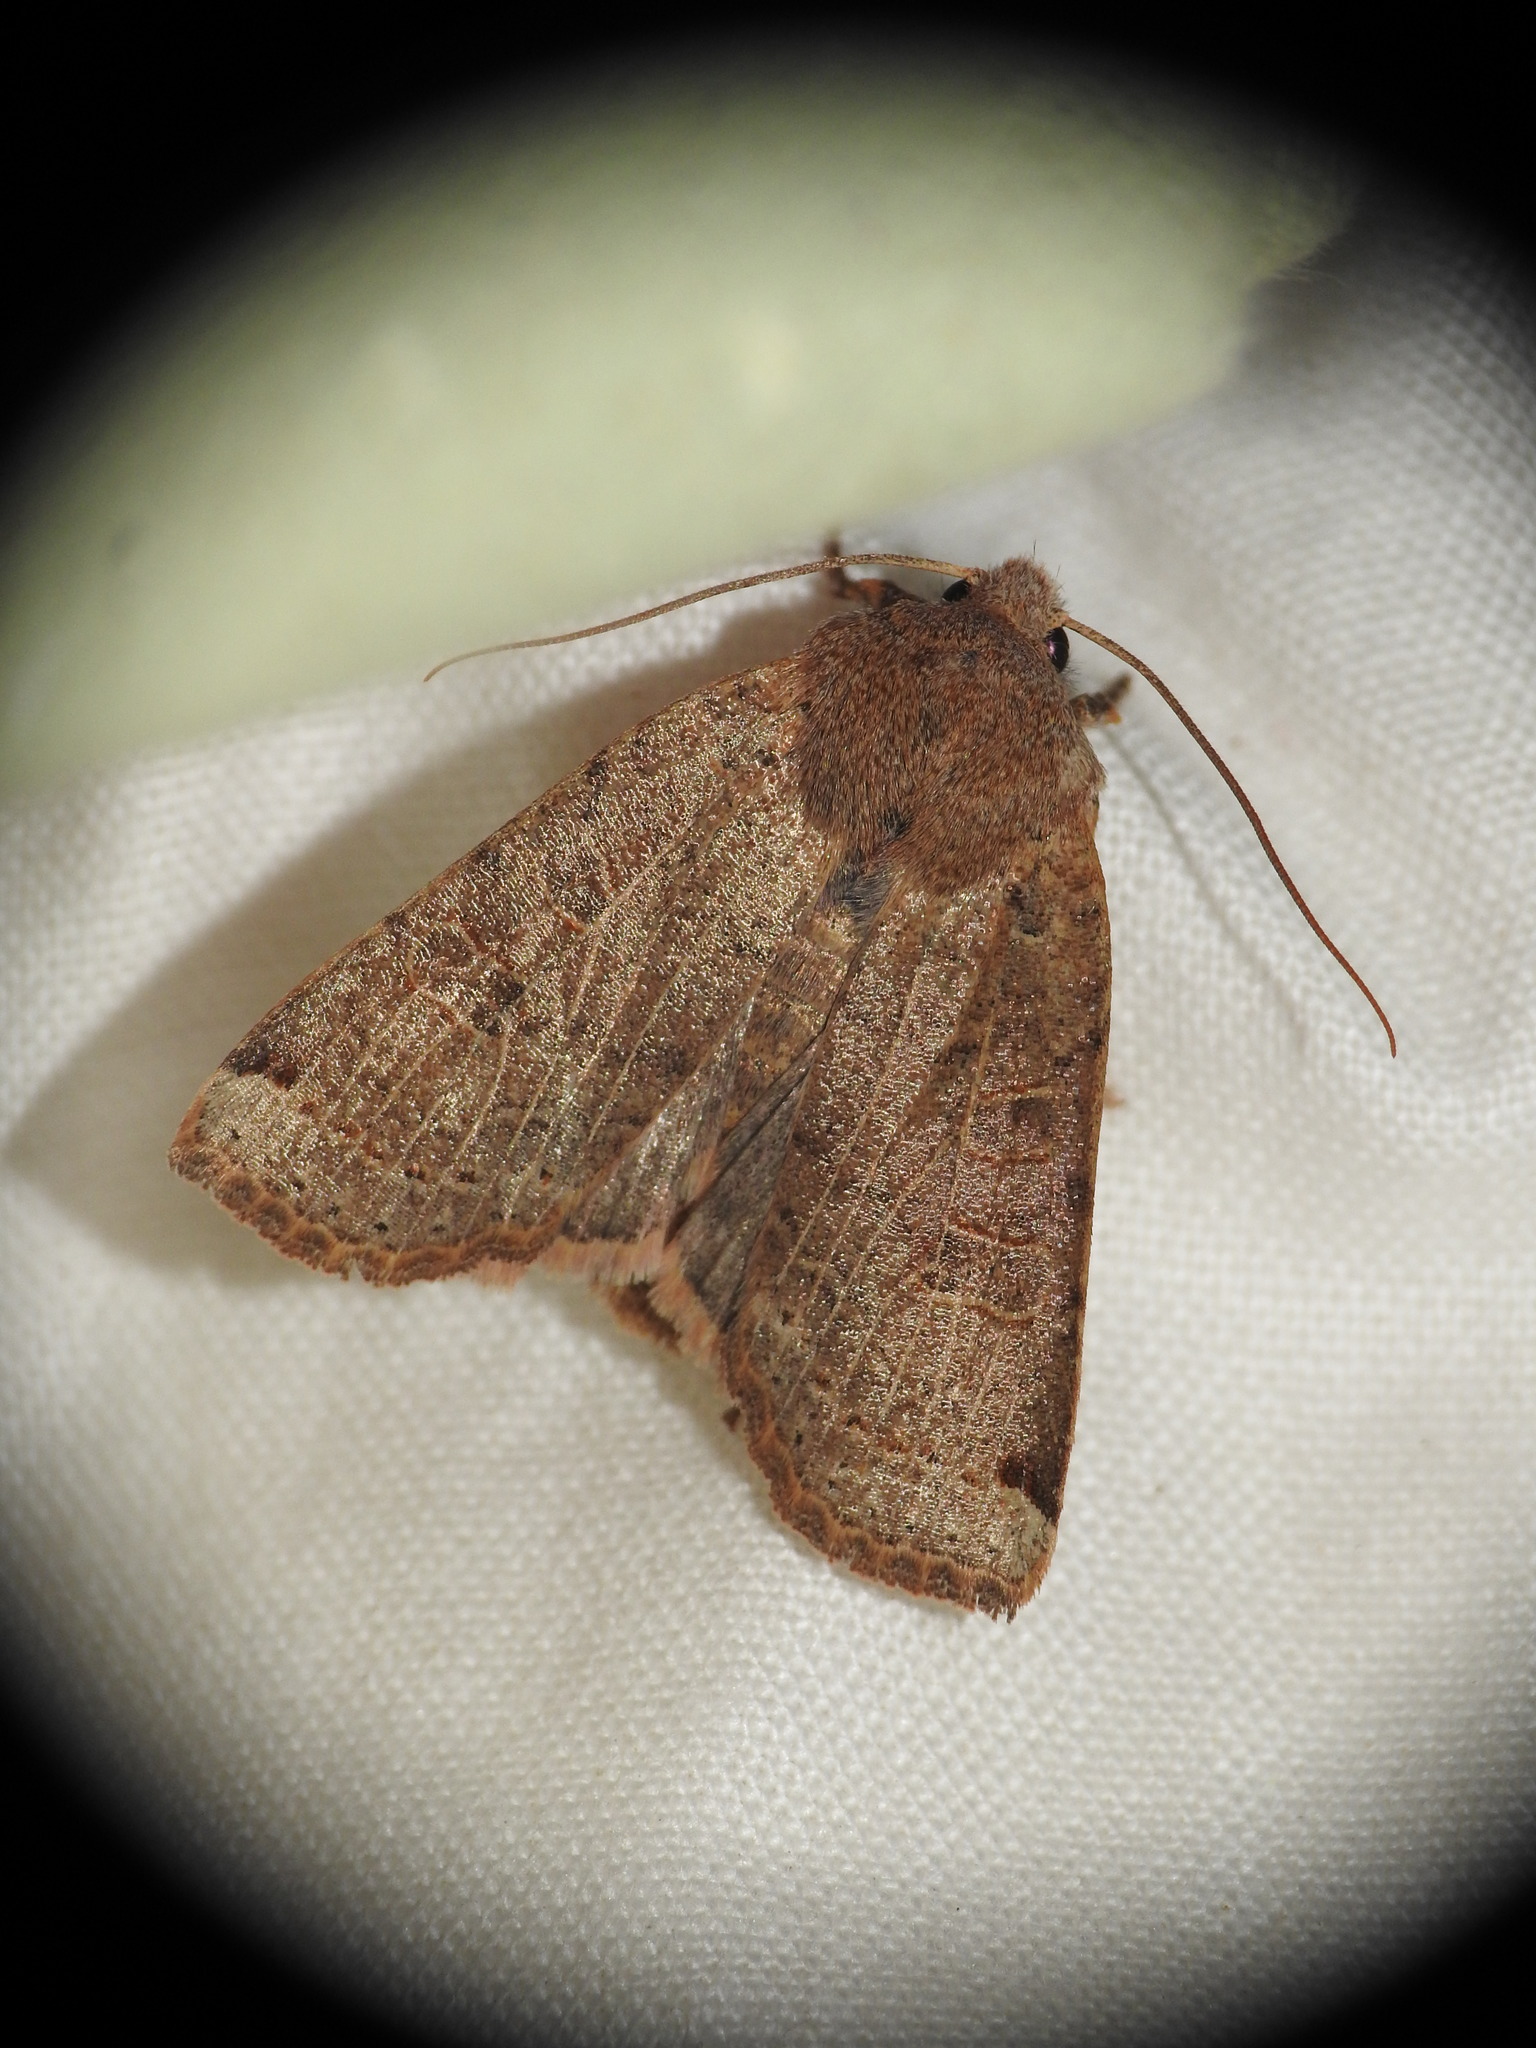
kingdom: Animalia
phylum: Arthropoda
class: Insecta
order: Lepidoptera
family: Noctuidae
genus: Conistra
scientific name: Conistra intricata
